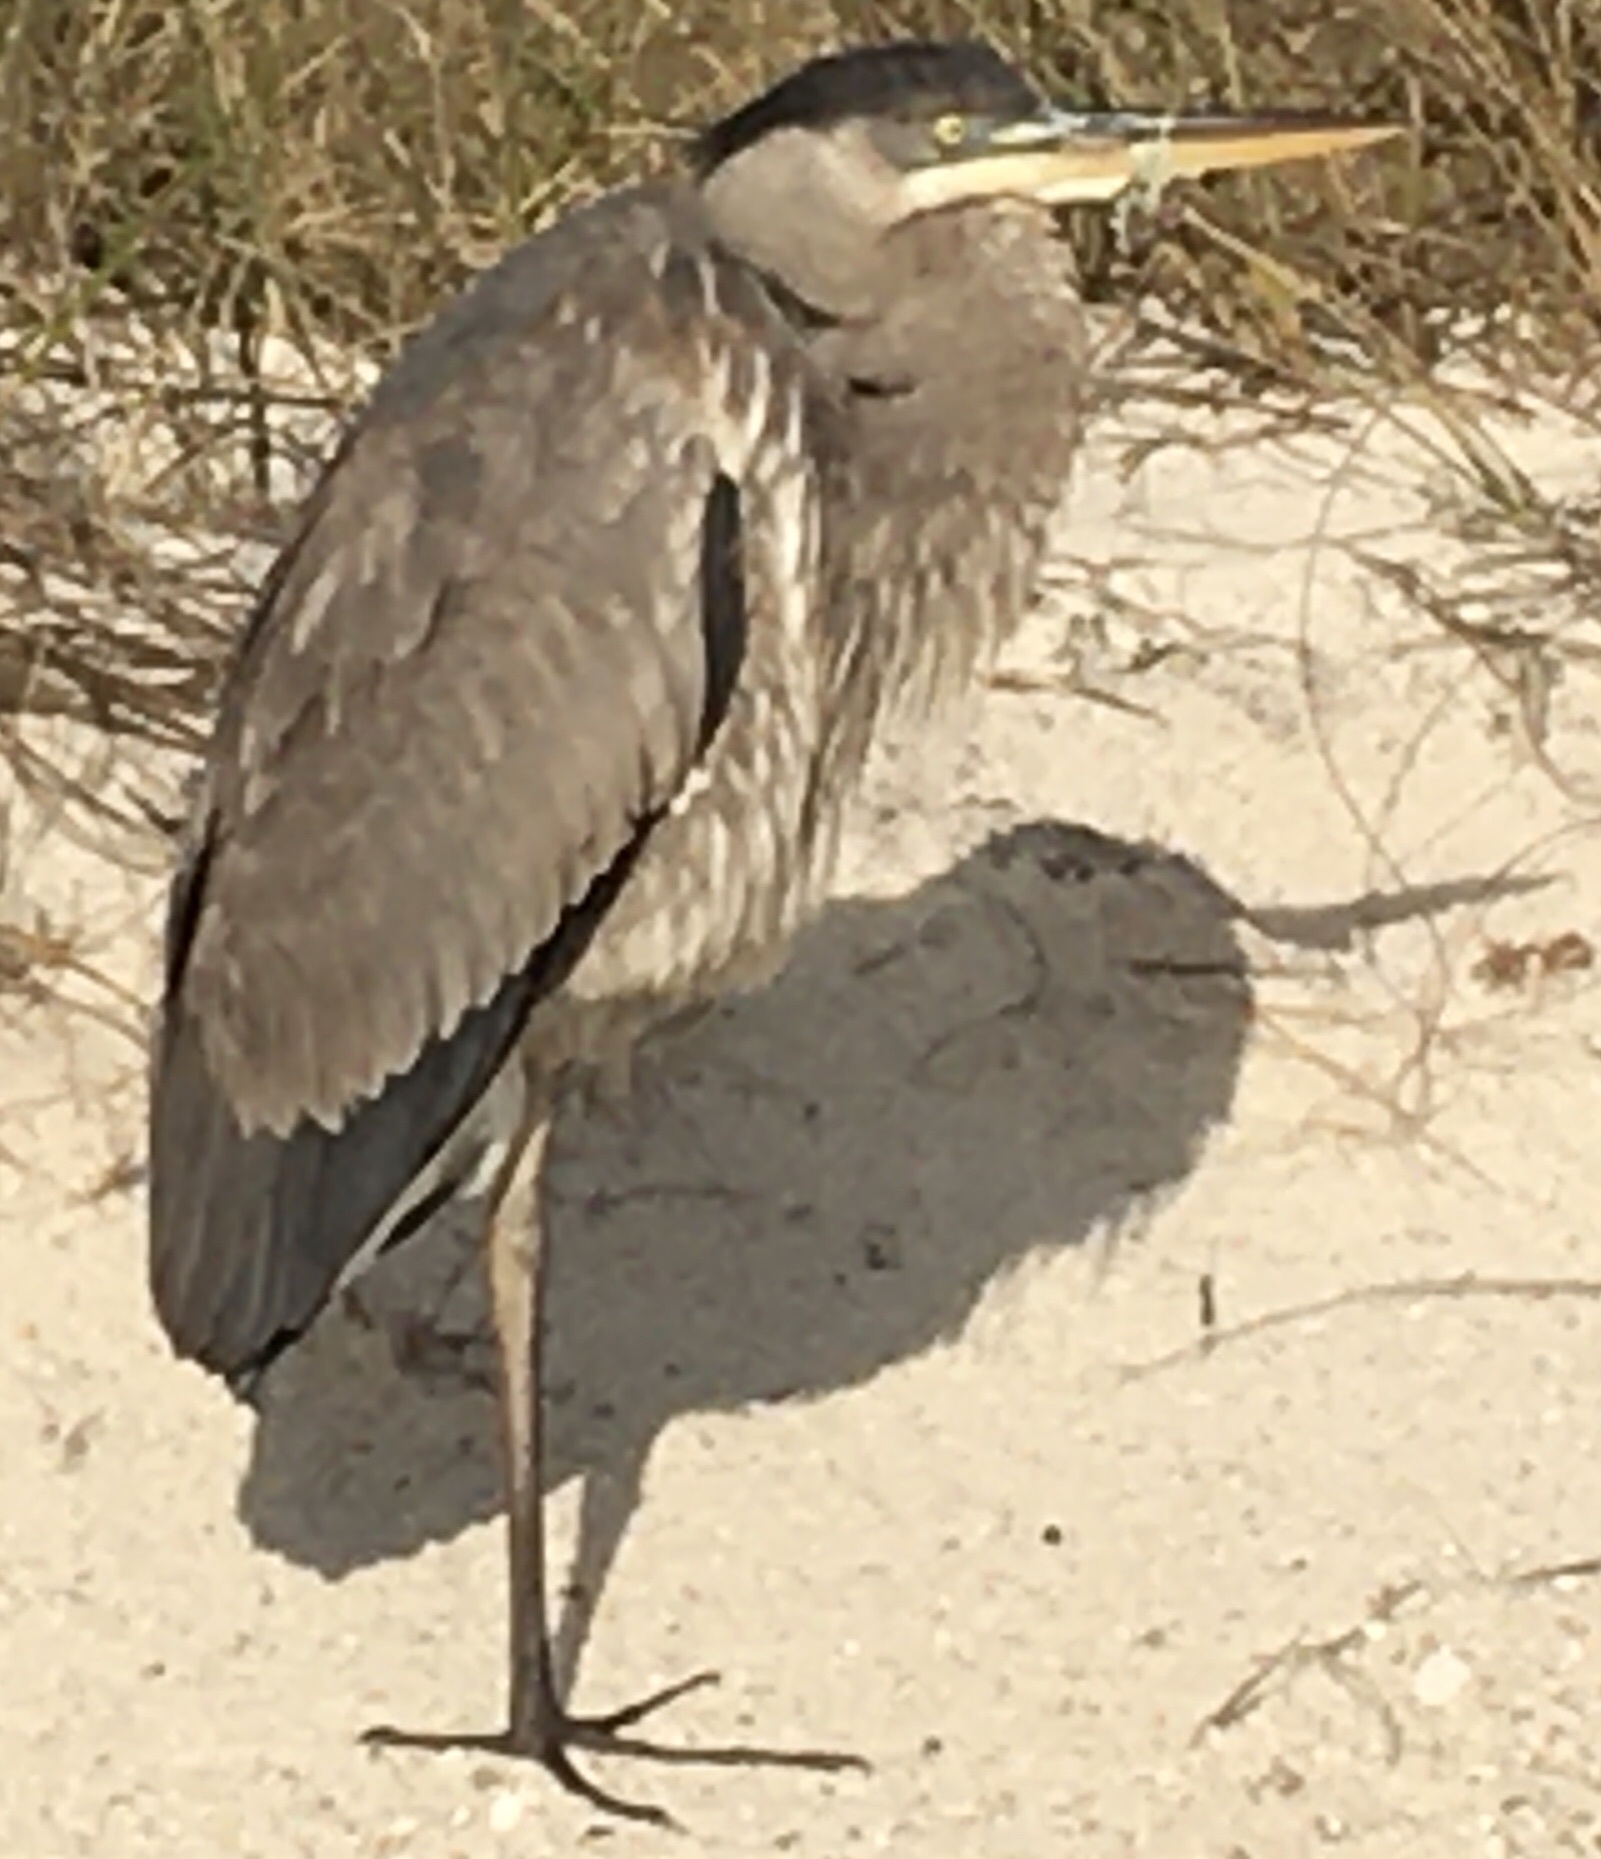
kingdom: Animalia
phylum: Chordata
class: Aves
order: Pelecaniformes
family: Ardeidae
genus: Ardea
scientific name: Ardea herodias
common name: Great blue heron
